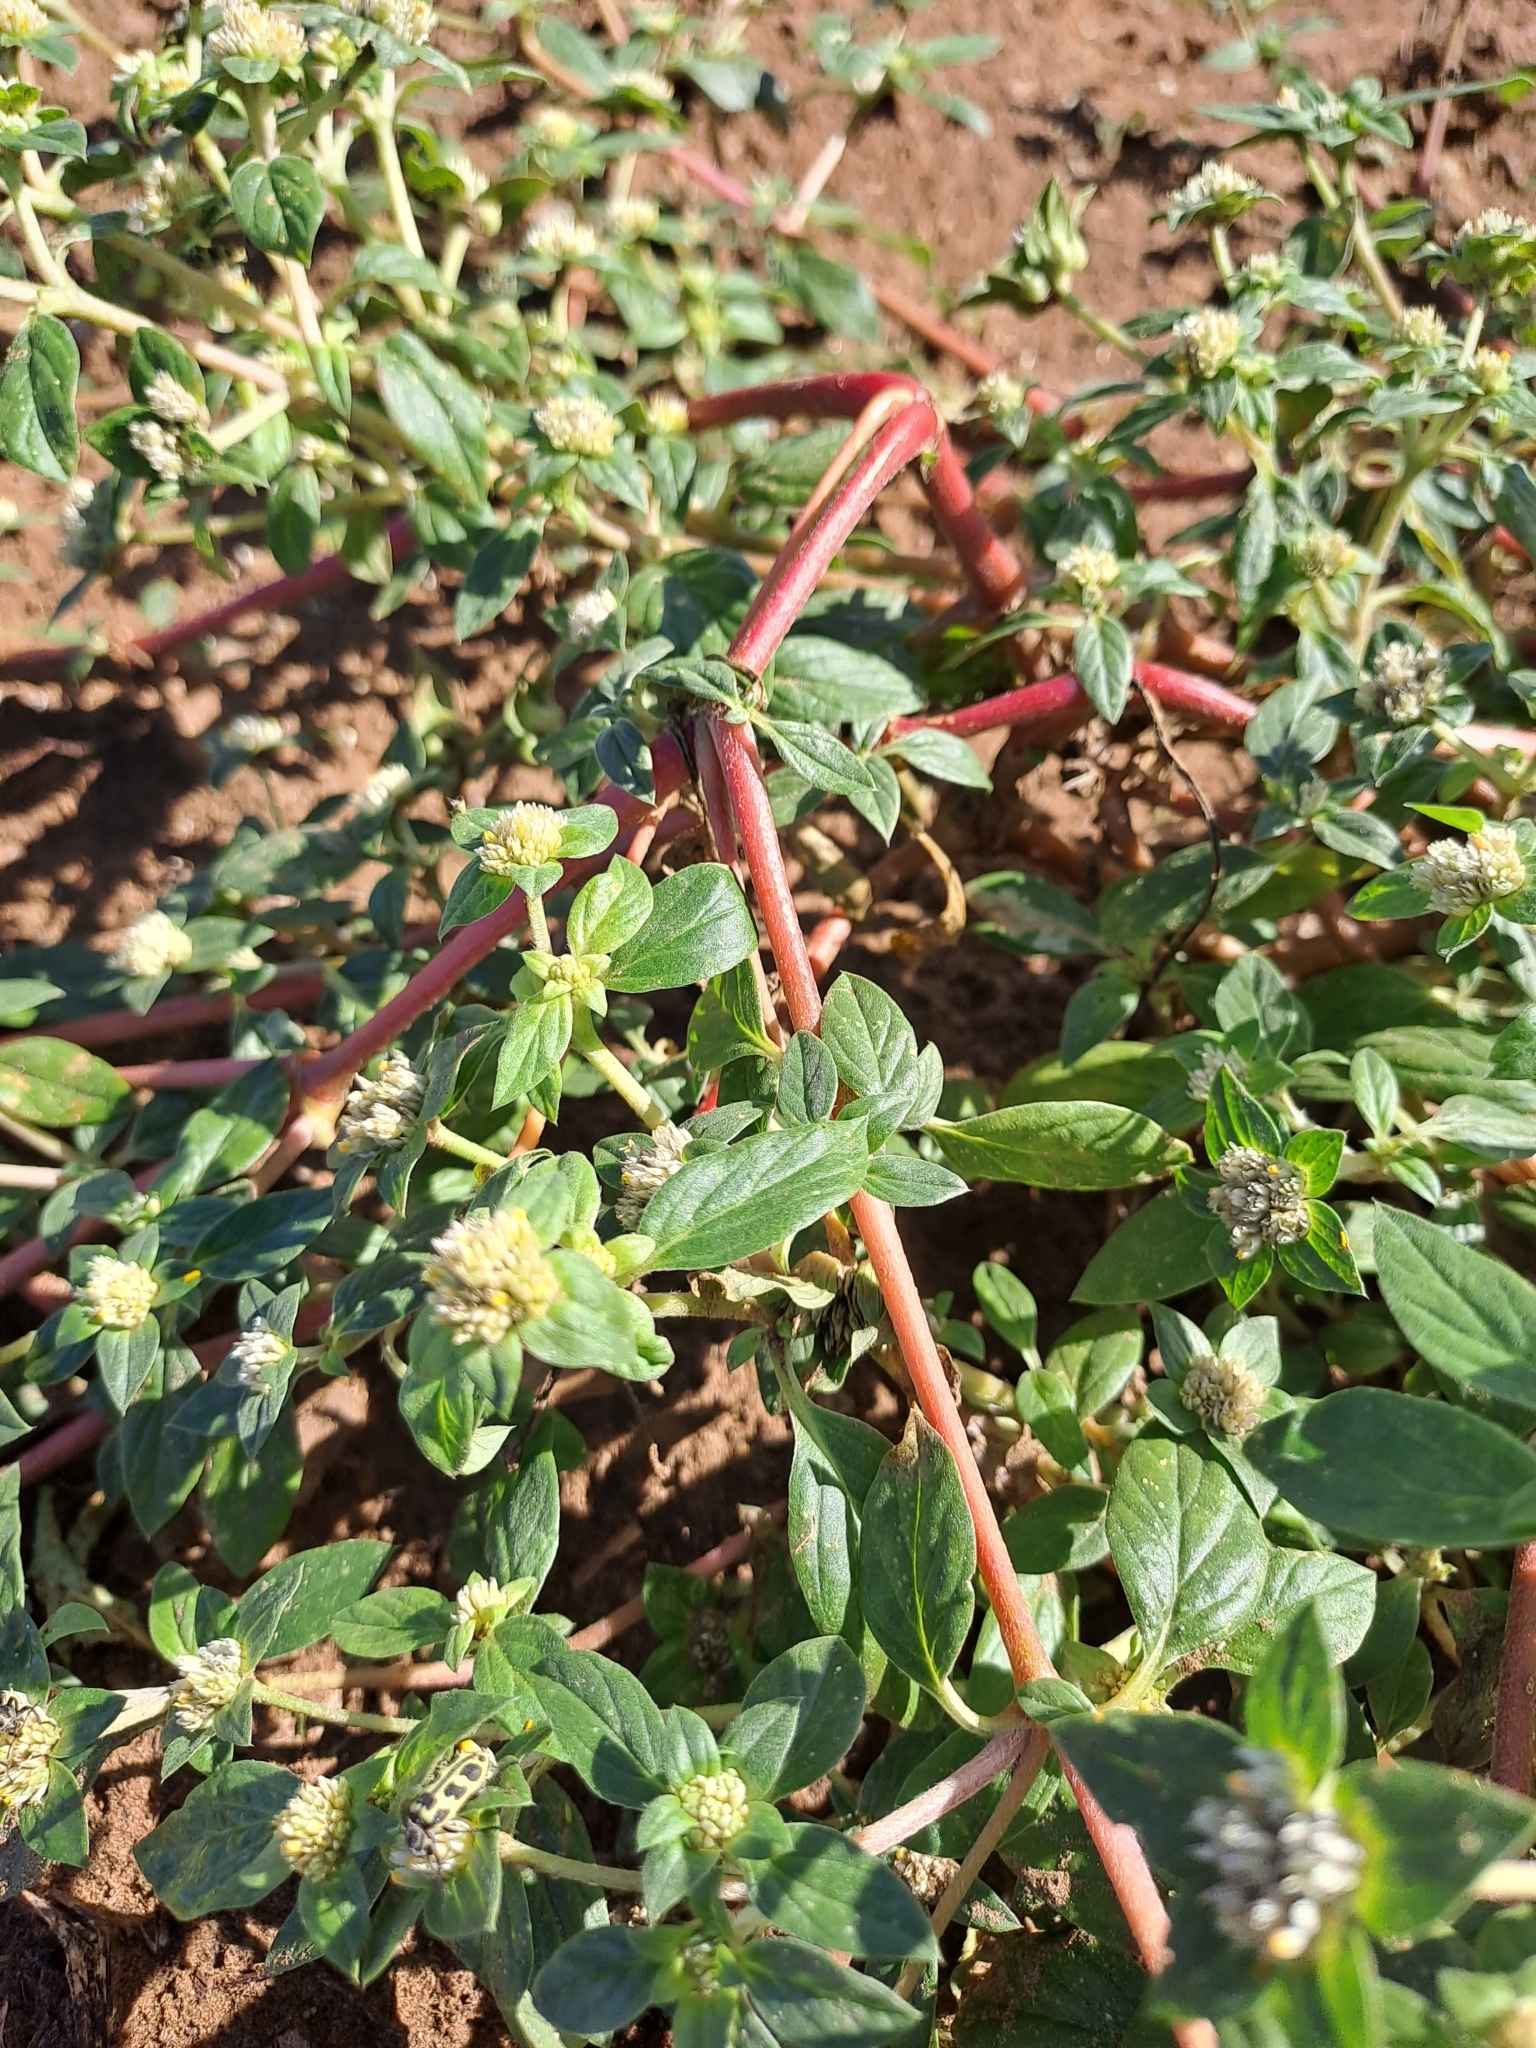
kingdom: Plantae
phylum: Tracheophyta
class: Magnoliopsida
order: Caryophyllales
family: Amaranthaceae
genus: Alternanthera
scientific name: Alternanthera caracasana
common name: Washerwoman
